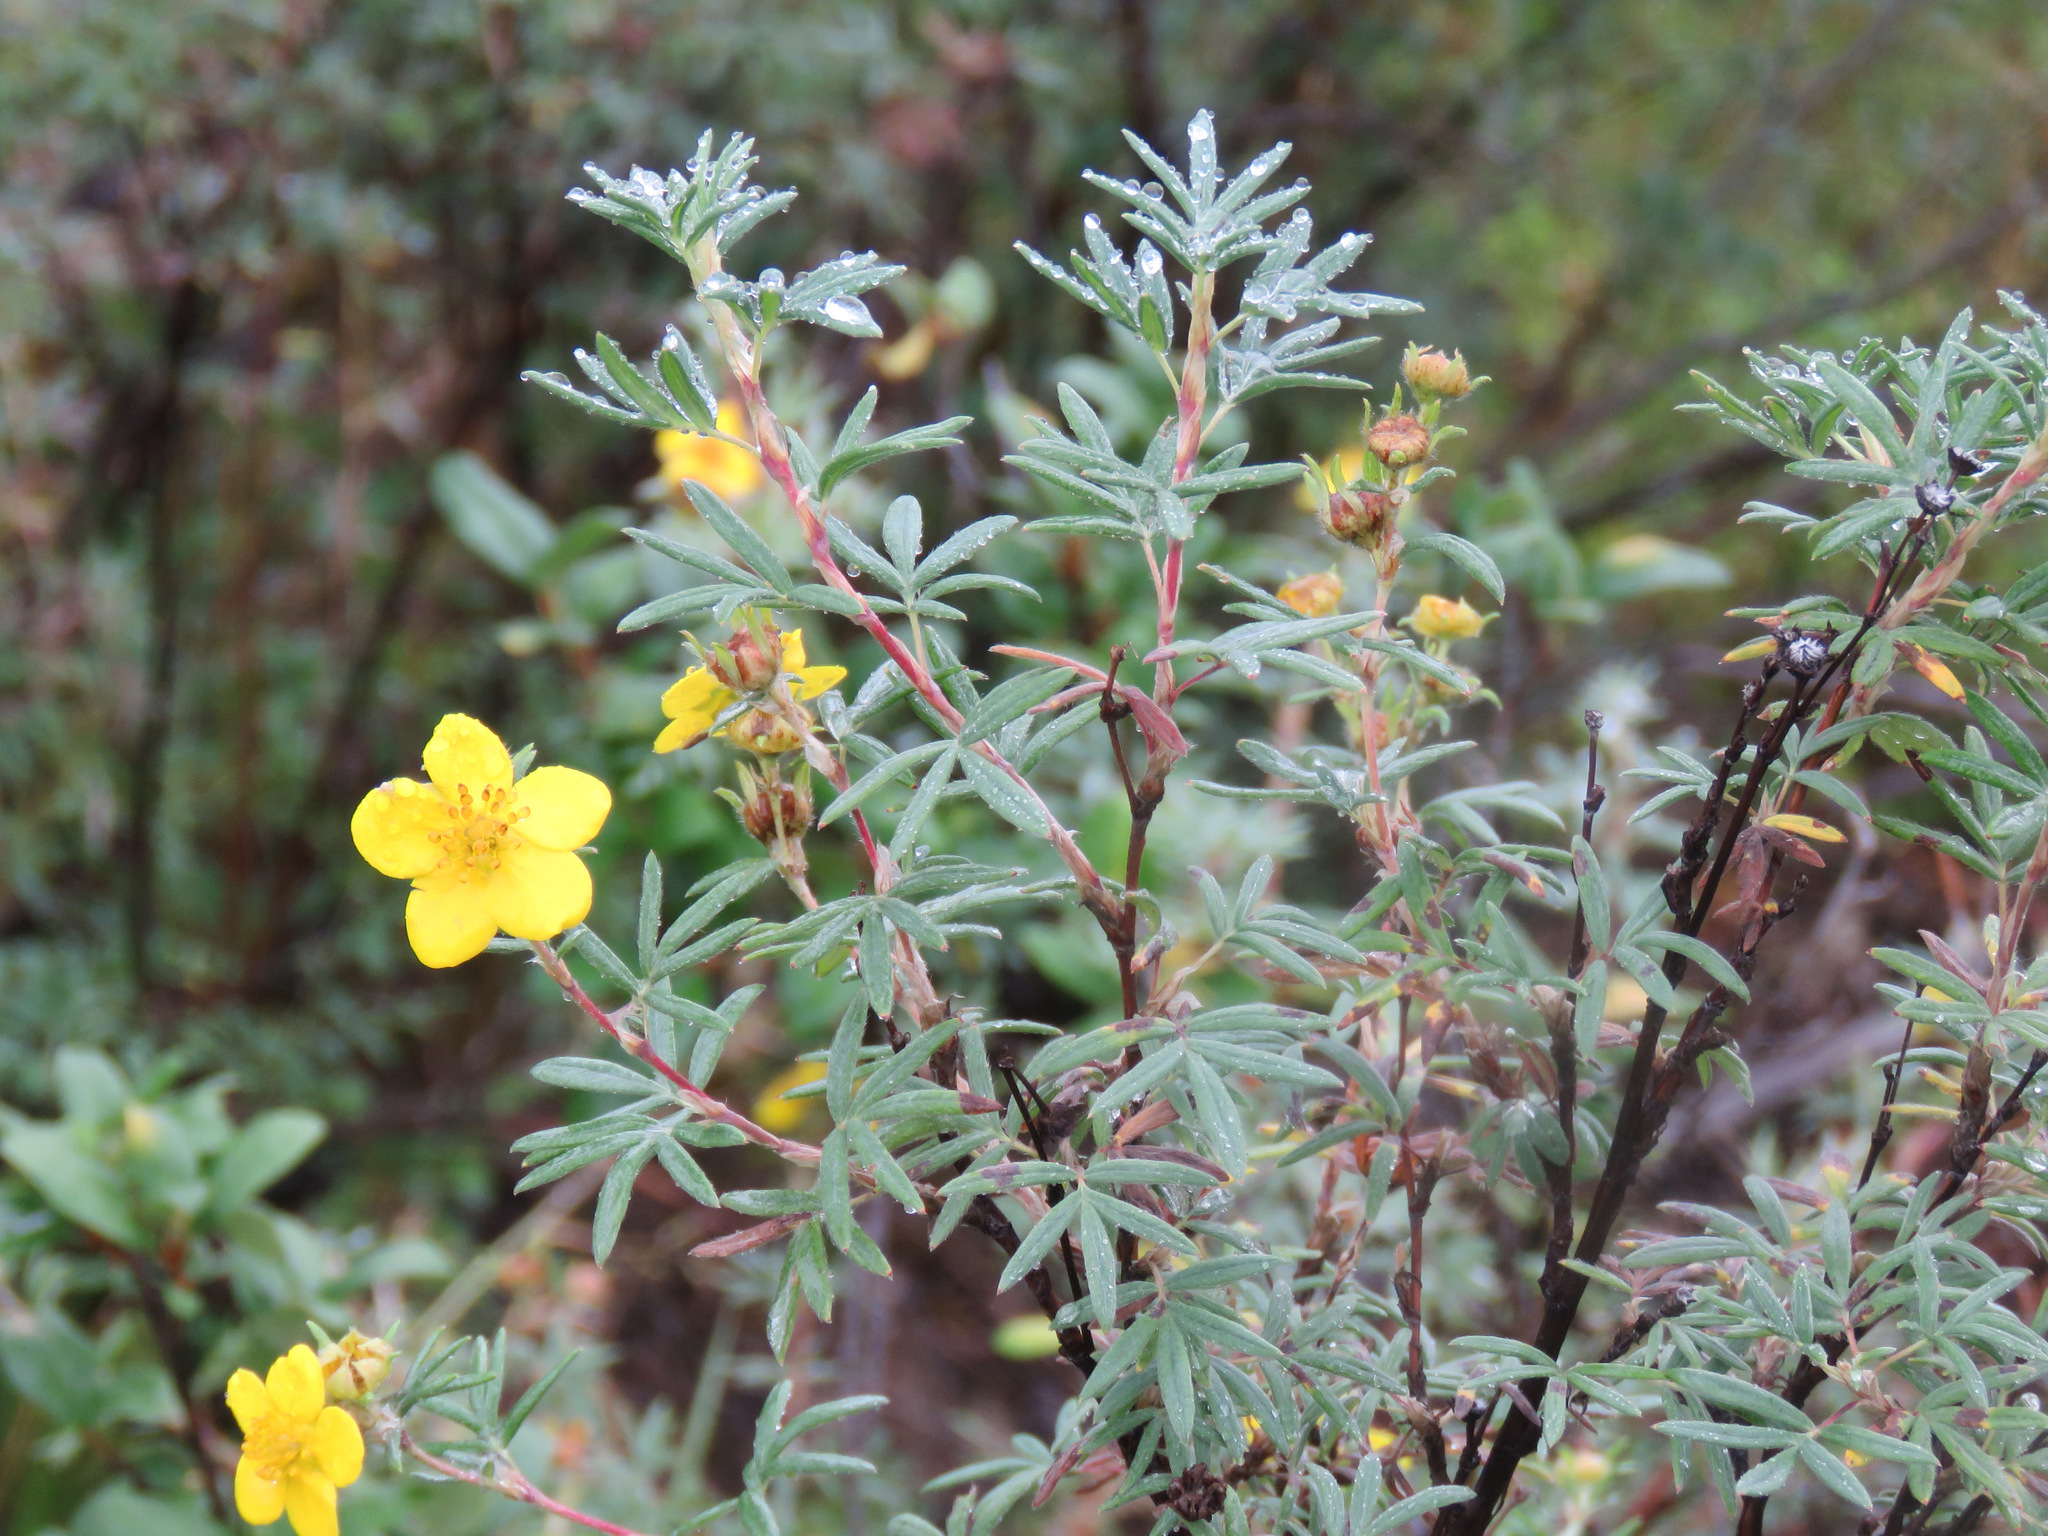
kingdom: Plantae
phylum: Tracheophyta
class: Magnoliopsida
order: Rosales
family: Rosaceae
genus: Dasiphora
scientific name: Dasiphora fruticosa
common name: Shrubby cinquefoil
